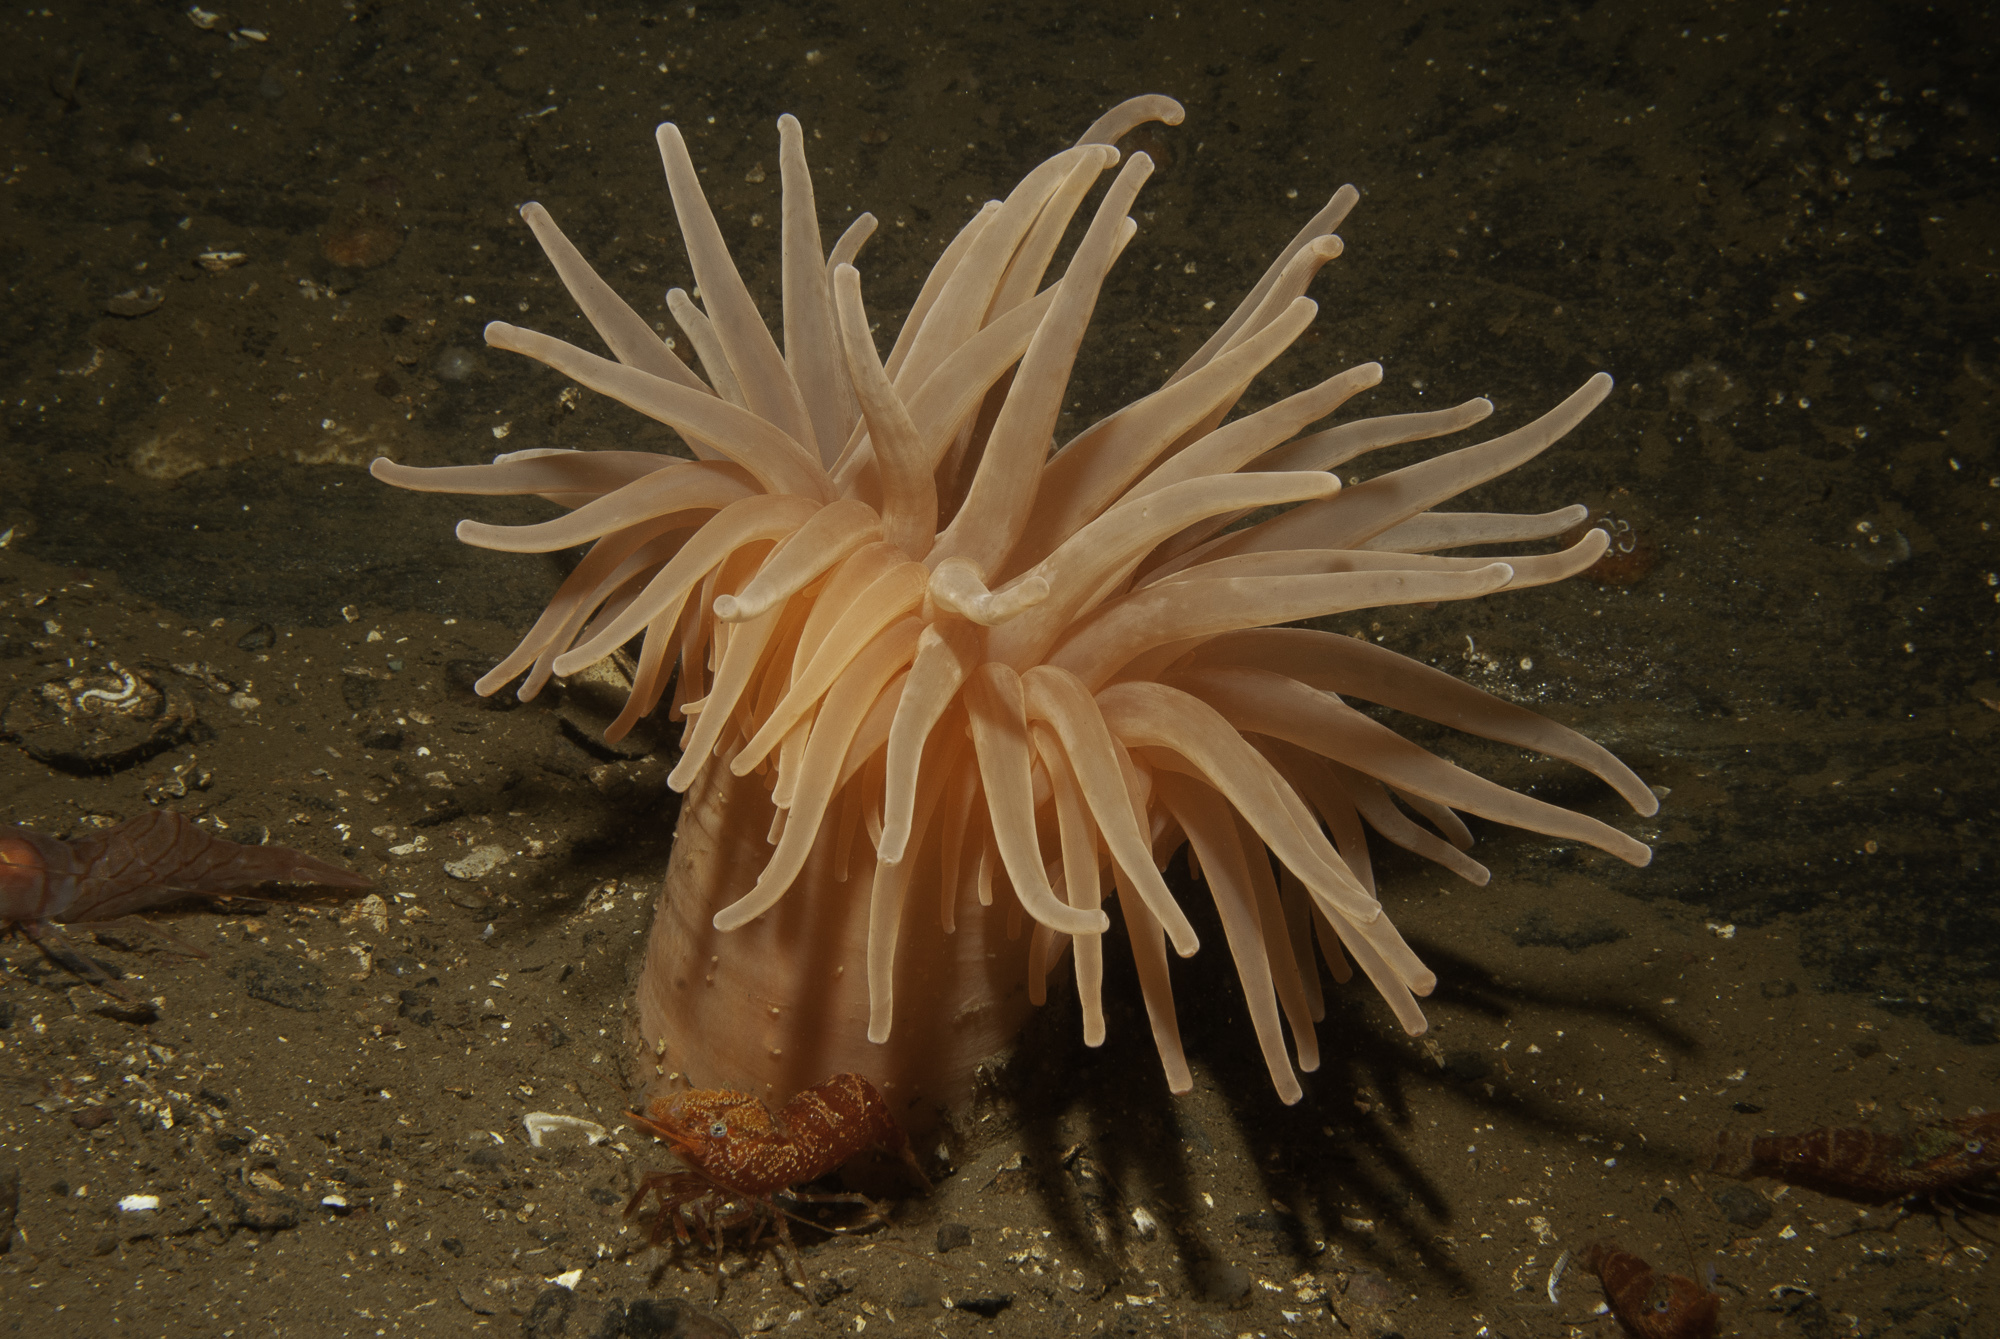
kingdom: Animalia
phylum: Cnidaria
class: Anthozoa
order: Actiniaria
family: Actiniidae
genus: Bolocera
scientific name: Bolocera tuediae
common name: Deeplet sea anemone
